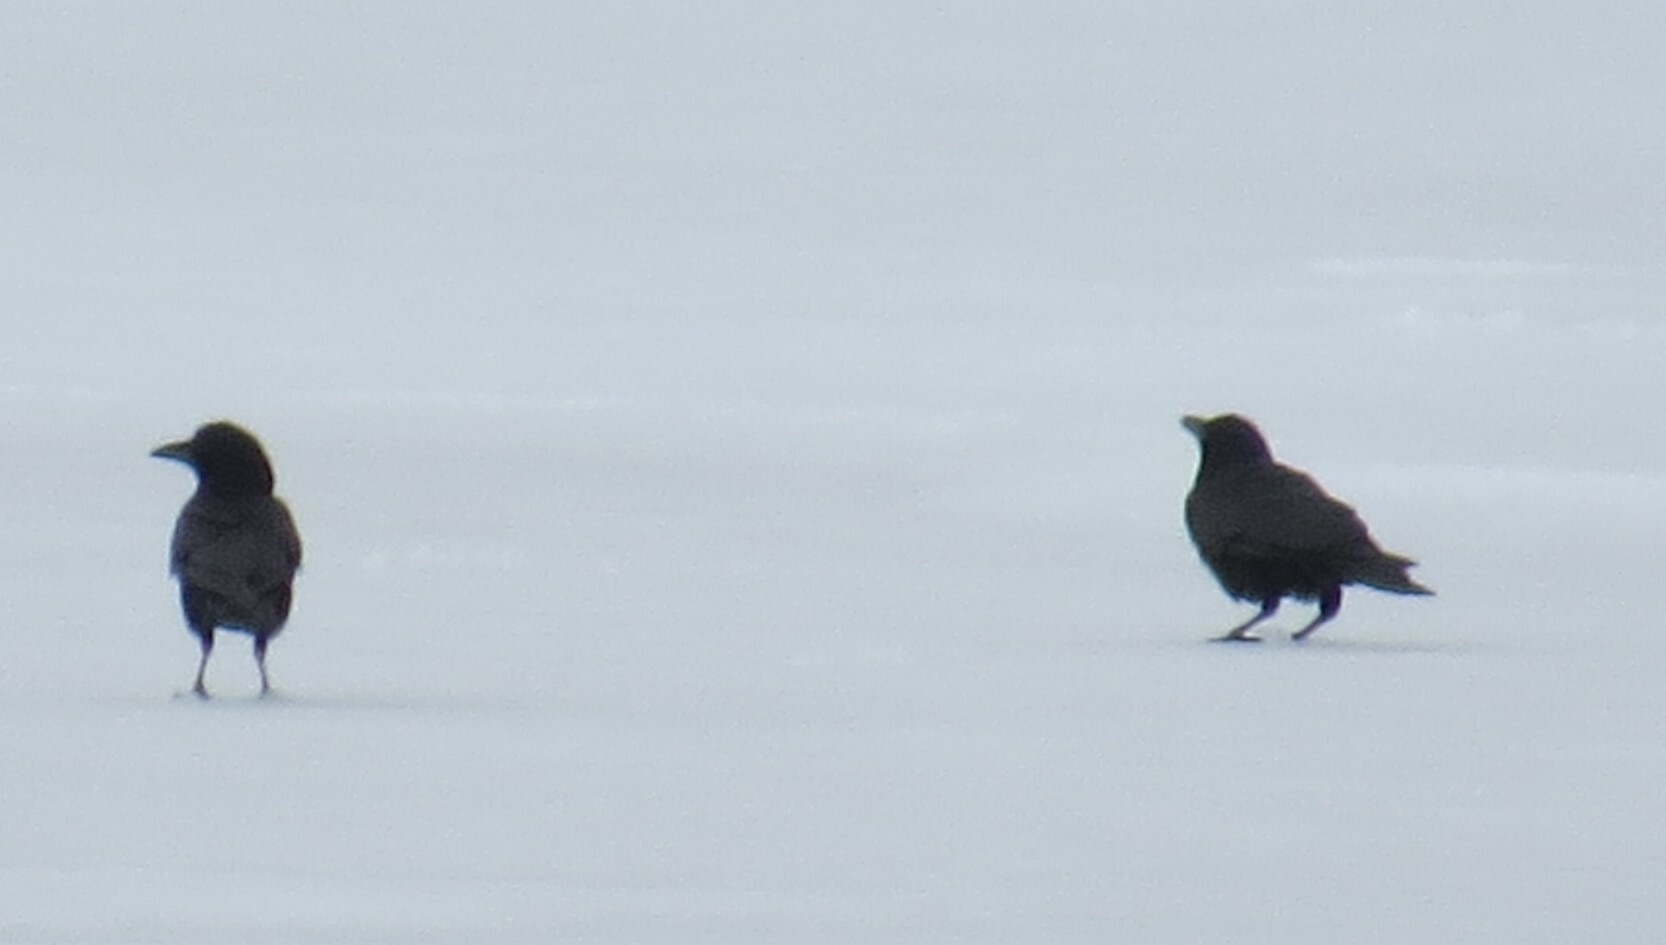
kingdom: Animalia
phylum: Chordata
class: Aves
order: Passeriformes
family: Corvidae
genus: Corvus
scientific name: Corvus brachyrhynchos
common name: American crow
